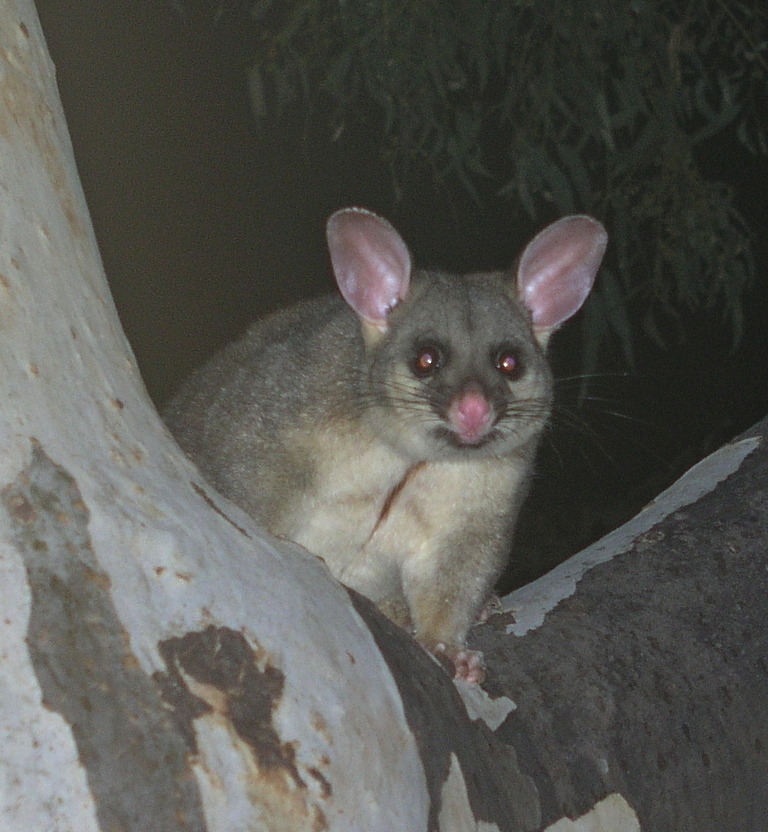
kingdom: Animalia
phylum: Chordata
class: Mammalia
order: Diprotodontia
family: Phalangeridae
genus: Trichosurus
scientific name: Trichosurus vulpecula
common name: Common brushtail
